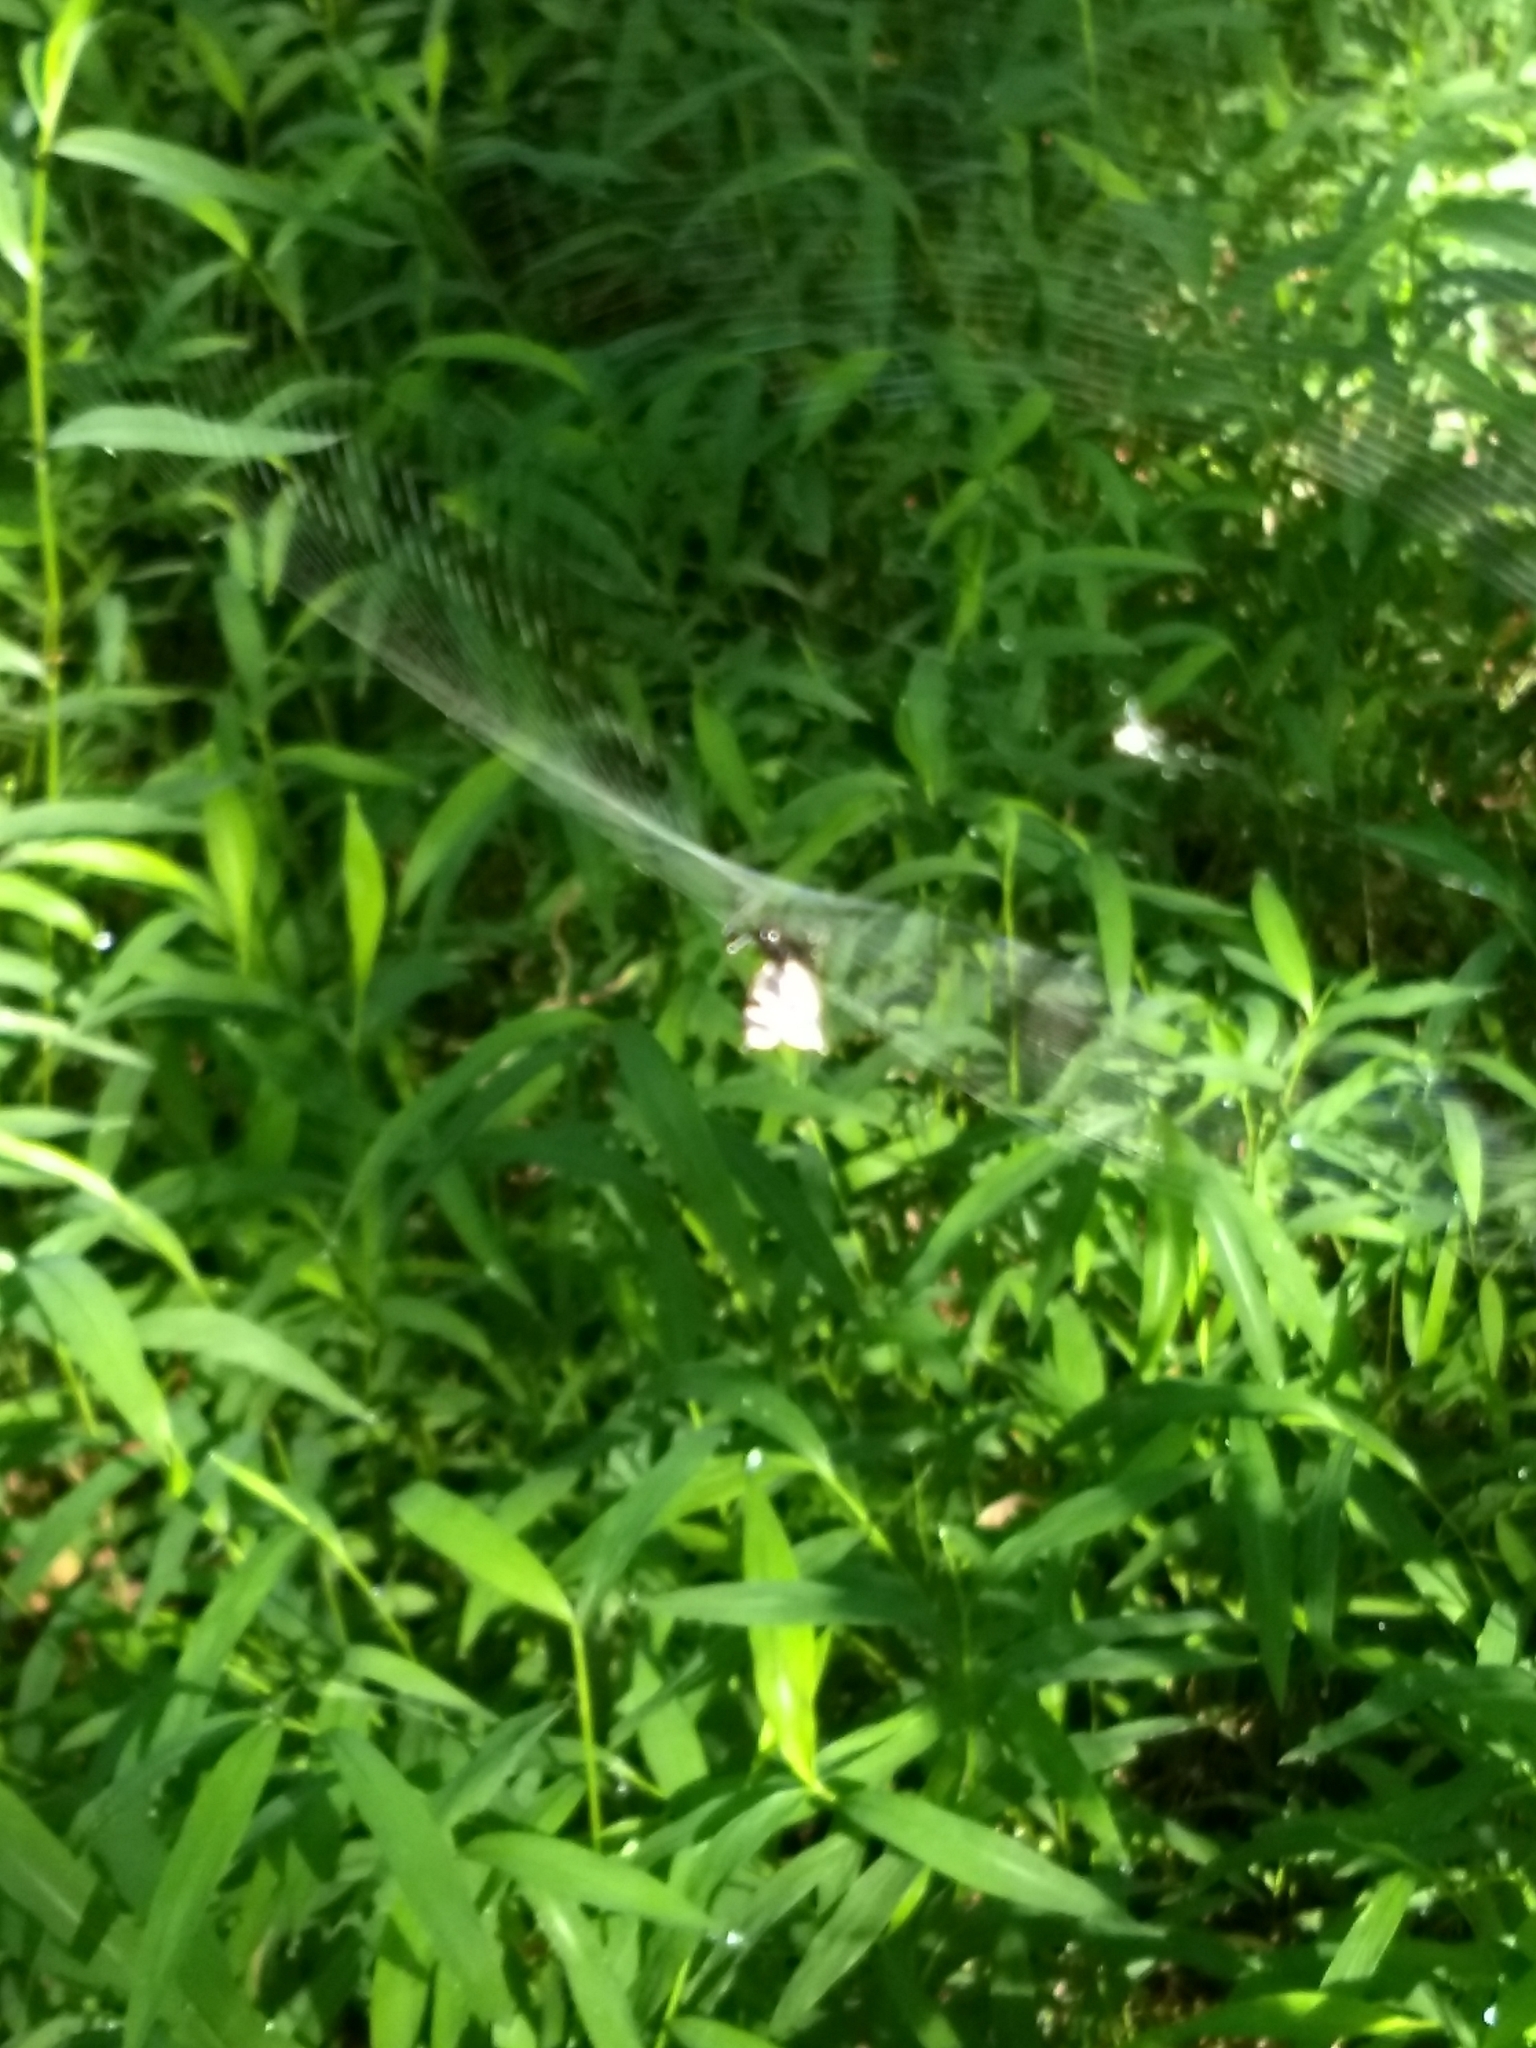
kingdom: Animalia
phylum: Arthropoda
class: Arachnida
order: Araneae
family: Araneidae
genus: Micrathena
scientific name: Micrathena gracilis
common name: Orb weavers
